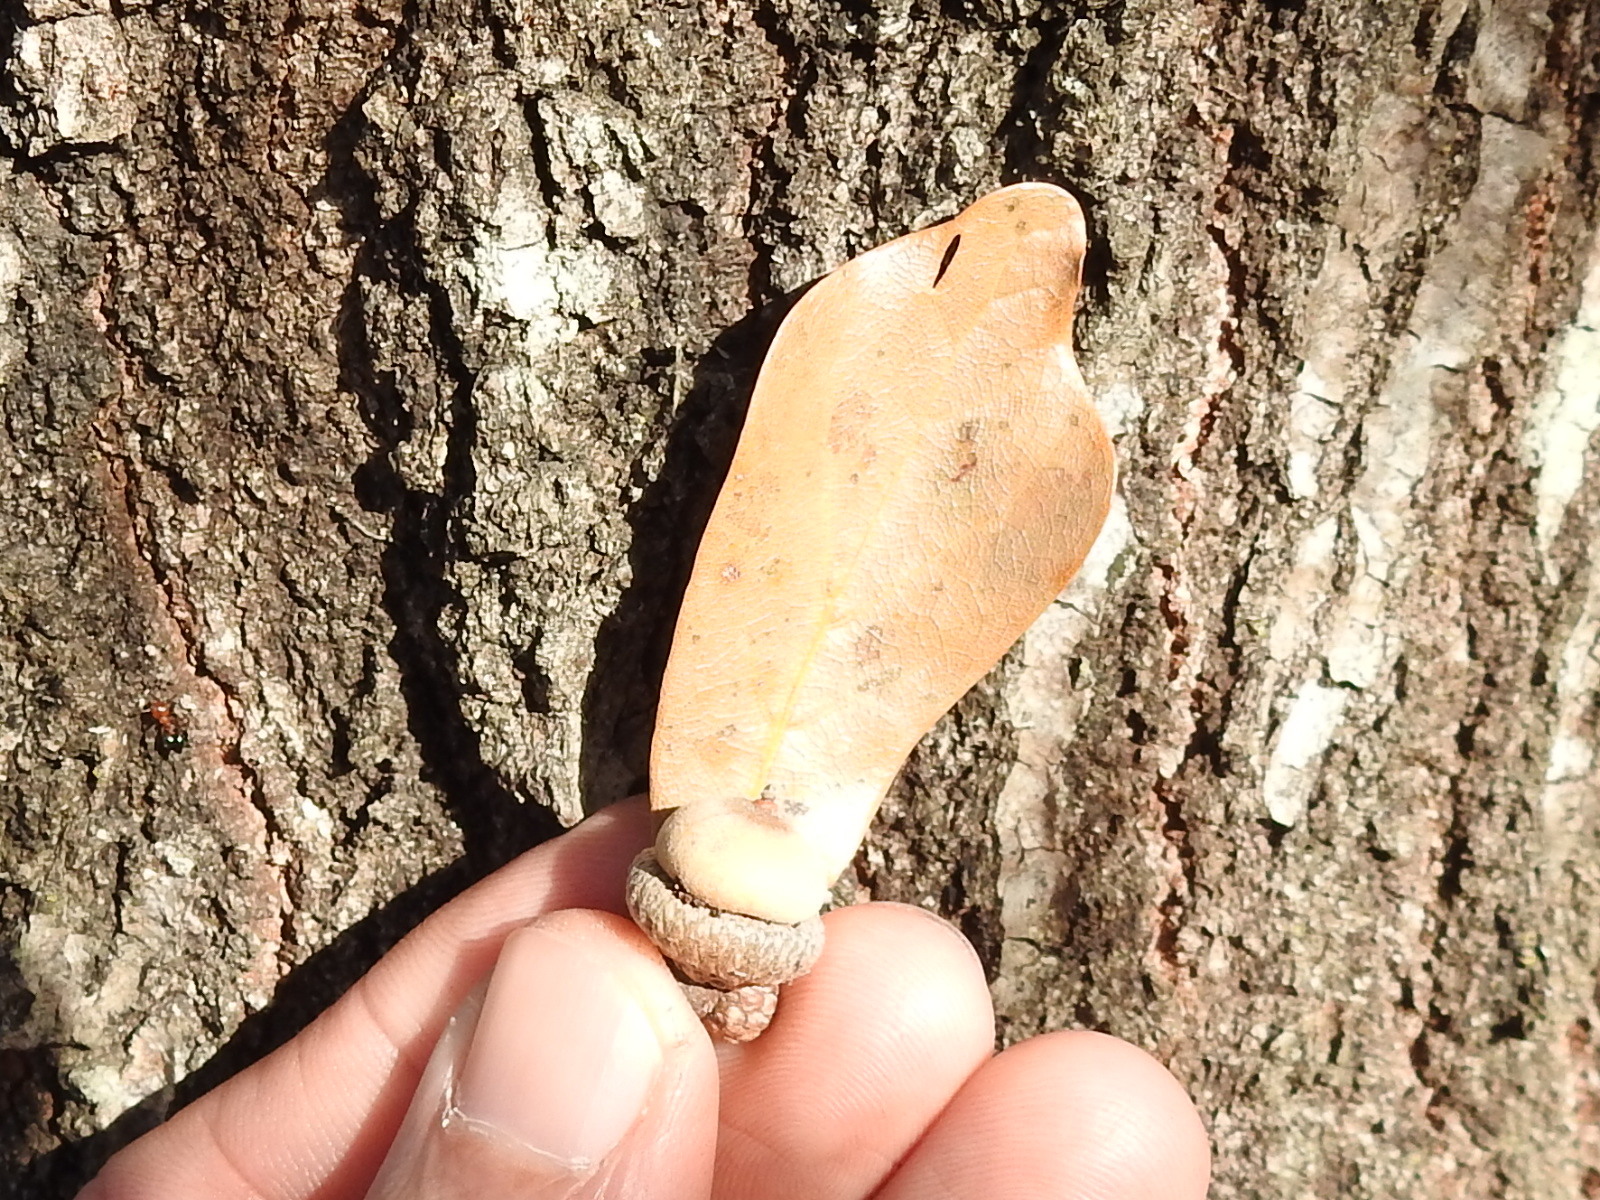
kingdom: Plantae
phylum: Tracheophyta
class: Magnoliopsida
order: Fagales
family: Fagaceae
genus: Quercus
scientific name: Quercus nigra
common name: Water oak
